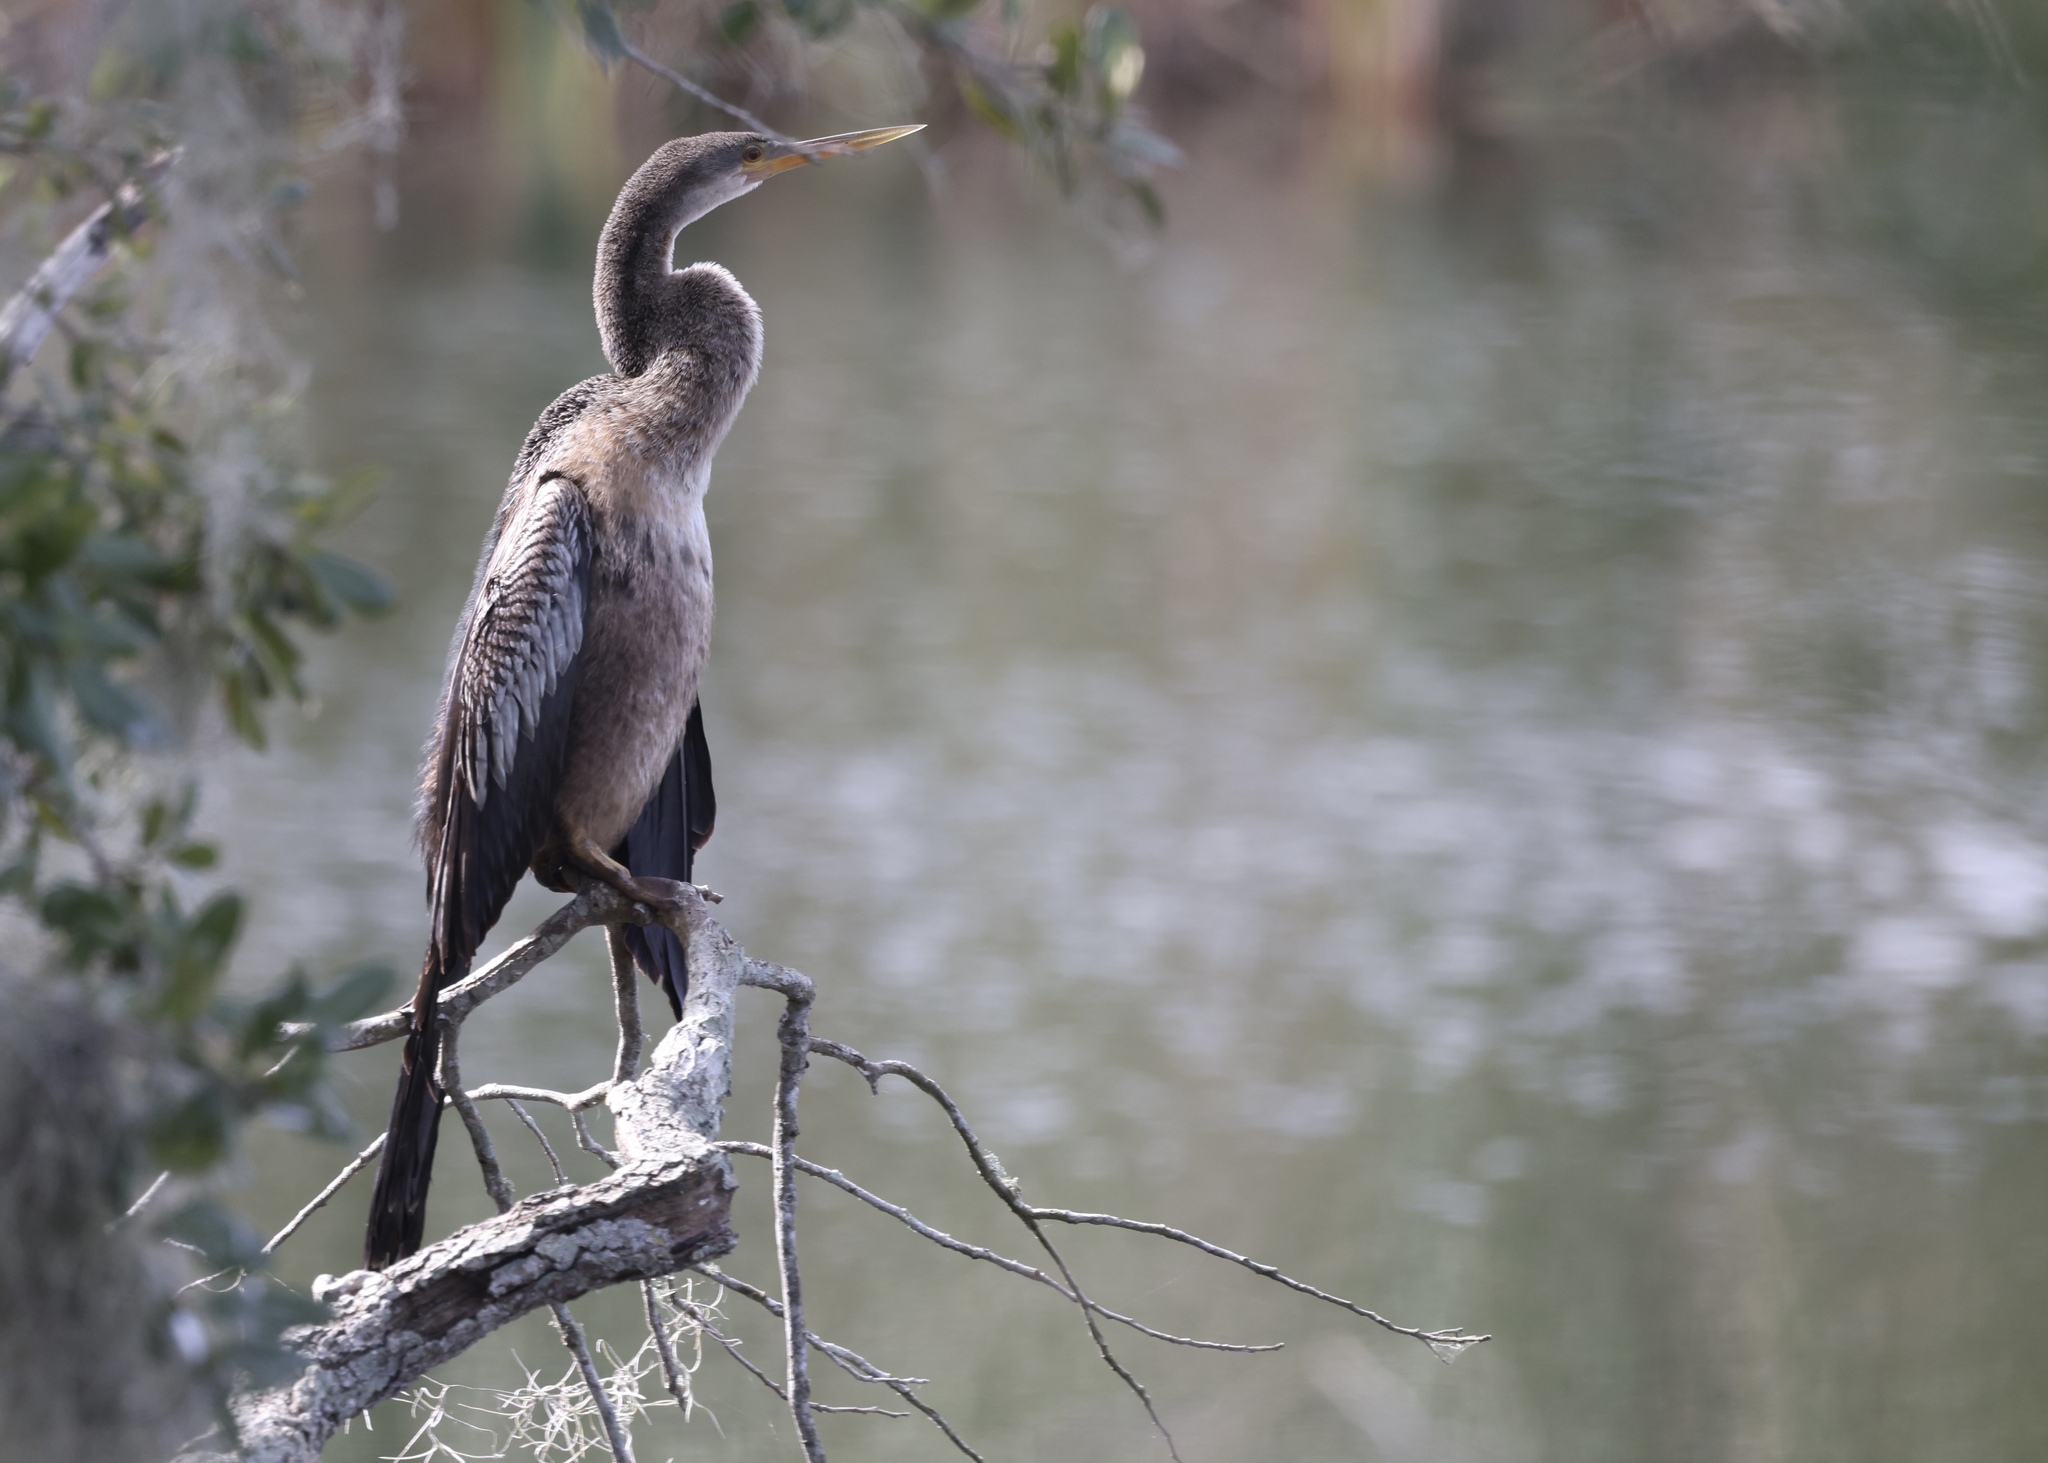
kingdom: Animalia
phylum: Chordata
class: Aves
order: Suliformes
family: Anhingidae
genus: Anhinga
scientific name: Anhinga anhinga
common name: Anhinga
